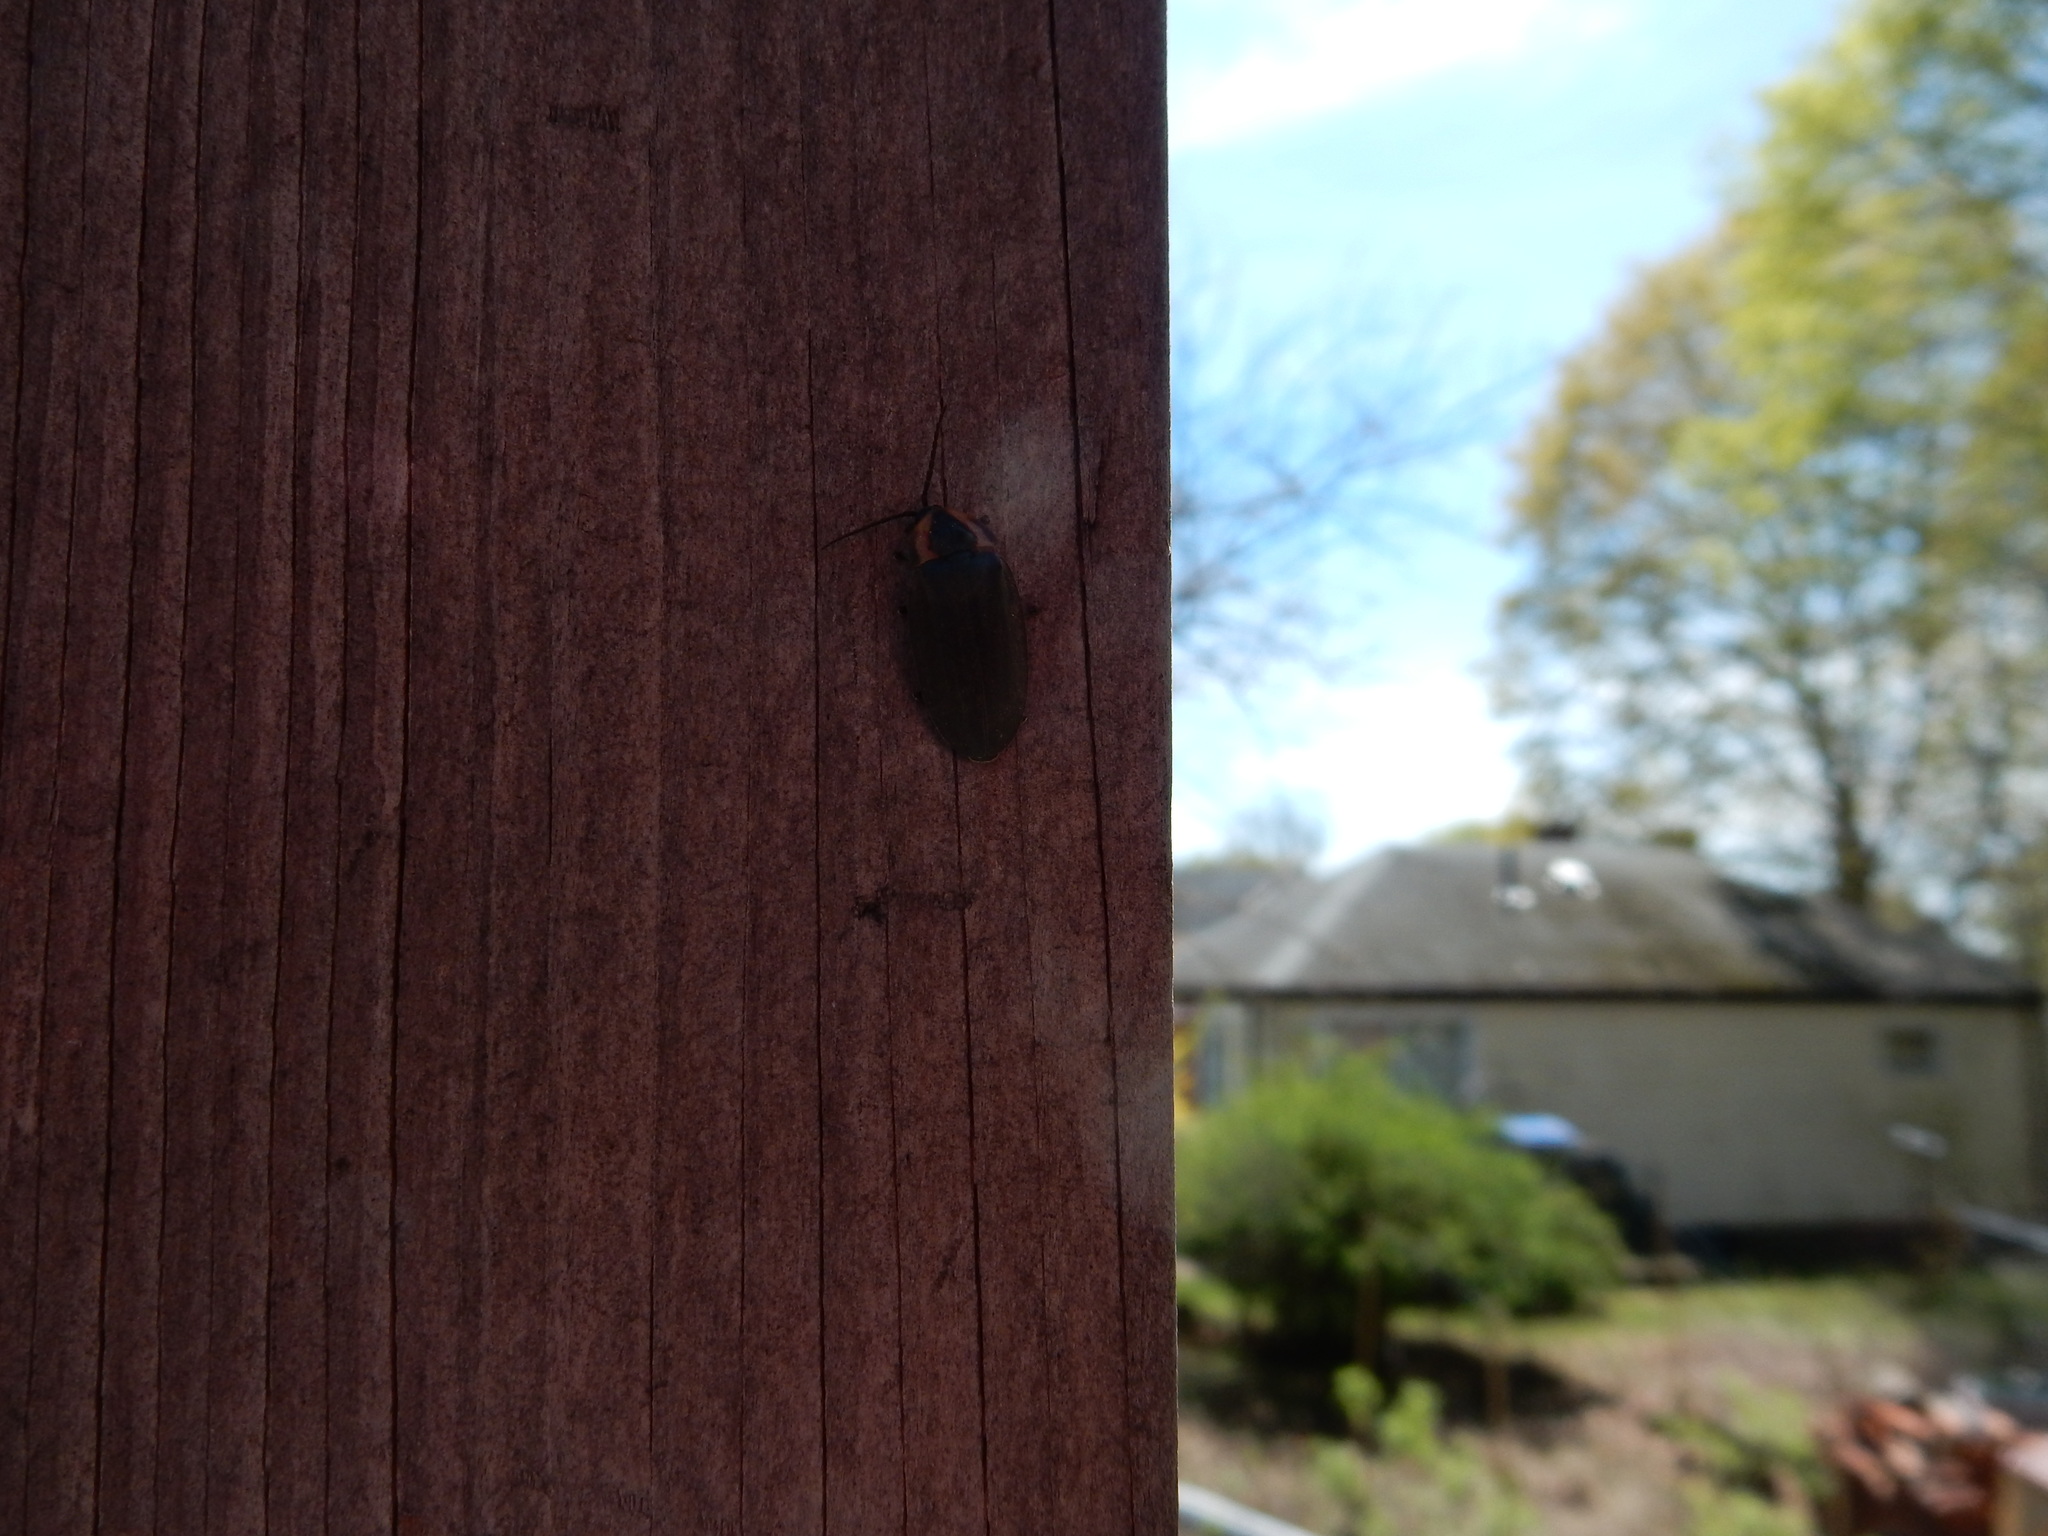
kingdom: Animalia
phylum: Arthropoda
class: Insecta
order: Coleoptera
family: Lampyridae
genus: Photinus
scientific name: Photinus corrusca
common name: Winter firefly
